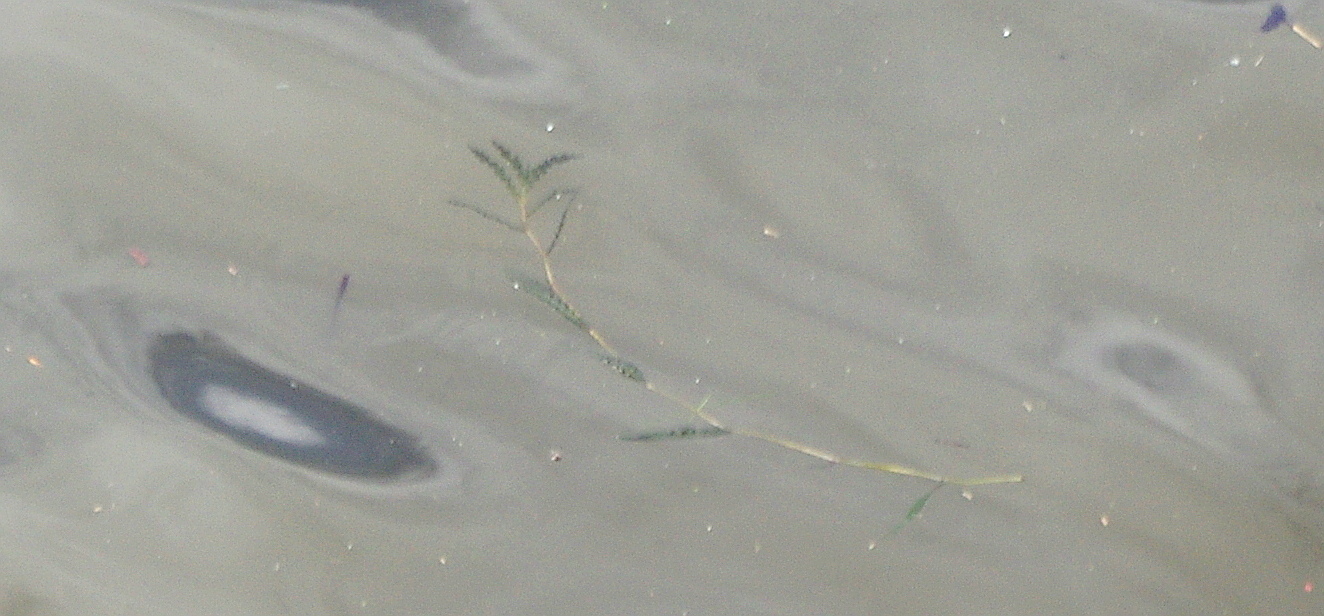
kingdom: Plantae
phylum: Tracheophyta
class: Liliopsida
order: Alismatales
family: Potamogetonaceae
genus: Potamogeton
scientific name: Potamogeton crispus
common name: Curled pondweed
